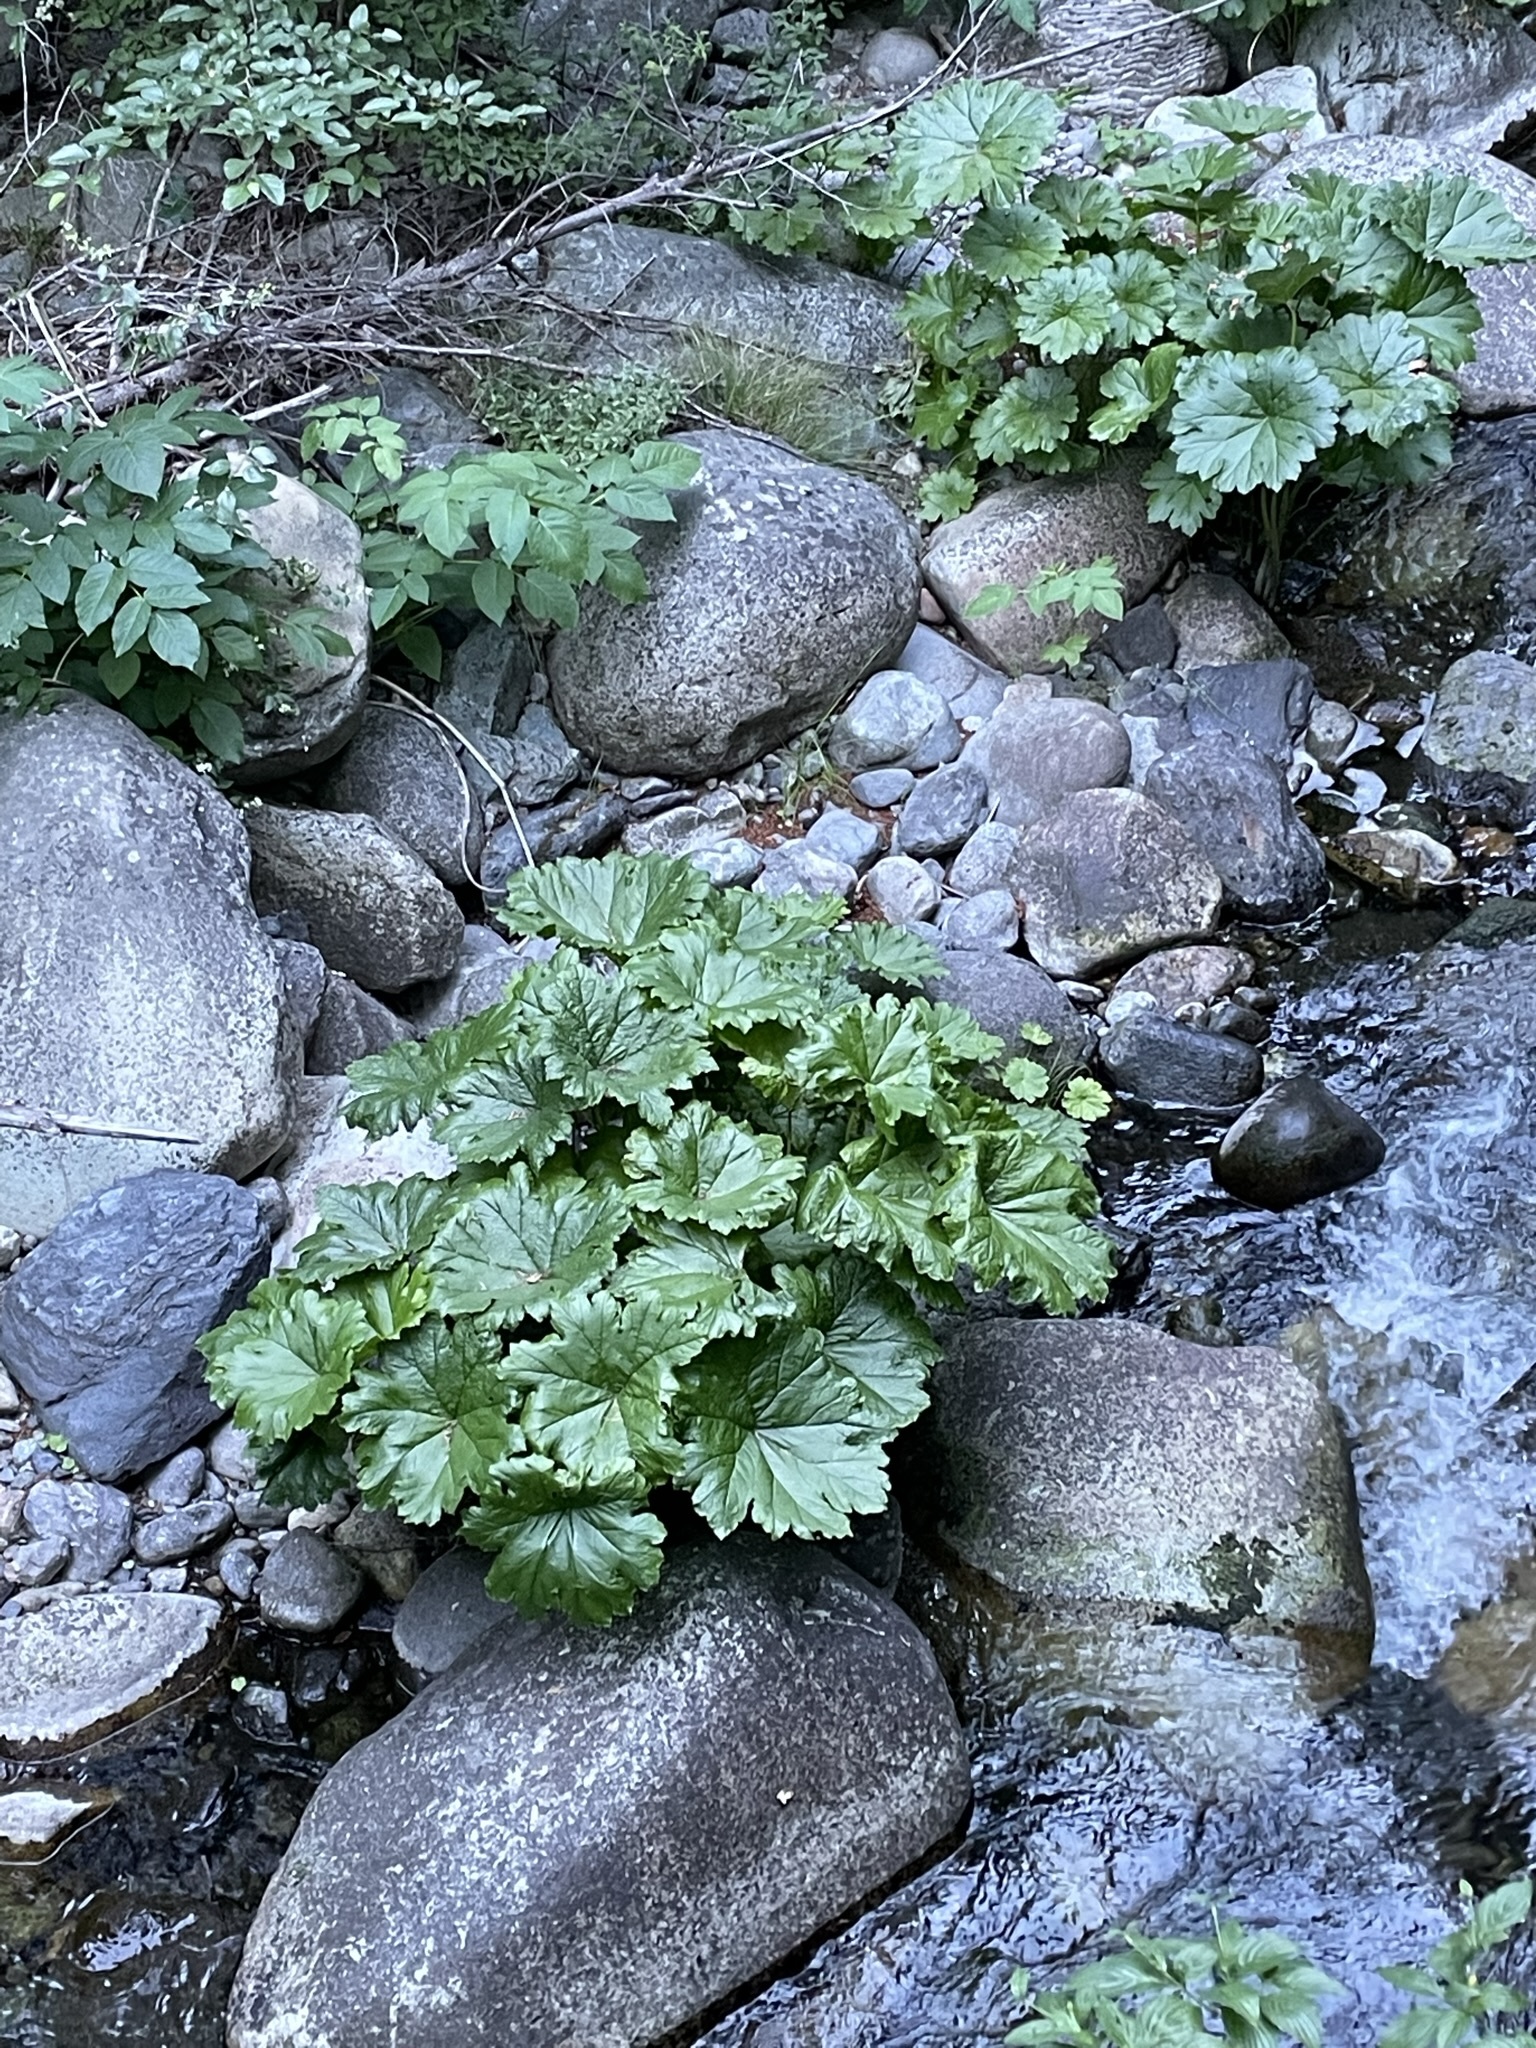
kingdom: Plantae
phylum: Tracheophyta
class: Magnoliopsida
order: Saxifragales
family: Saxifragaceae
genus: Darmera
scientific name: Darmera peltata
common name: Indian-rhubarb
